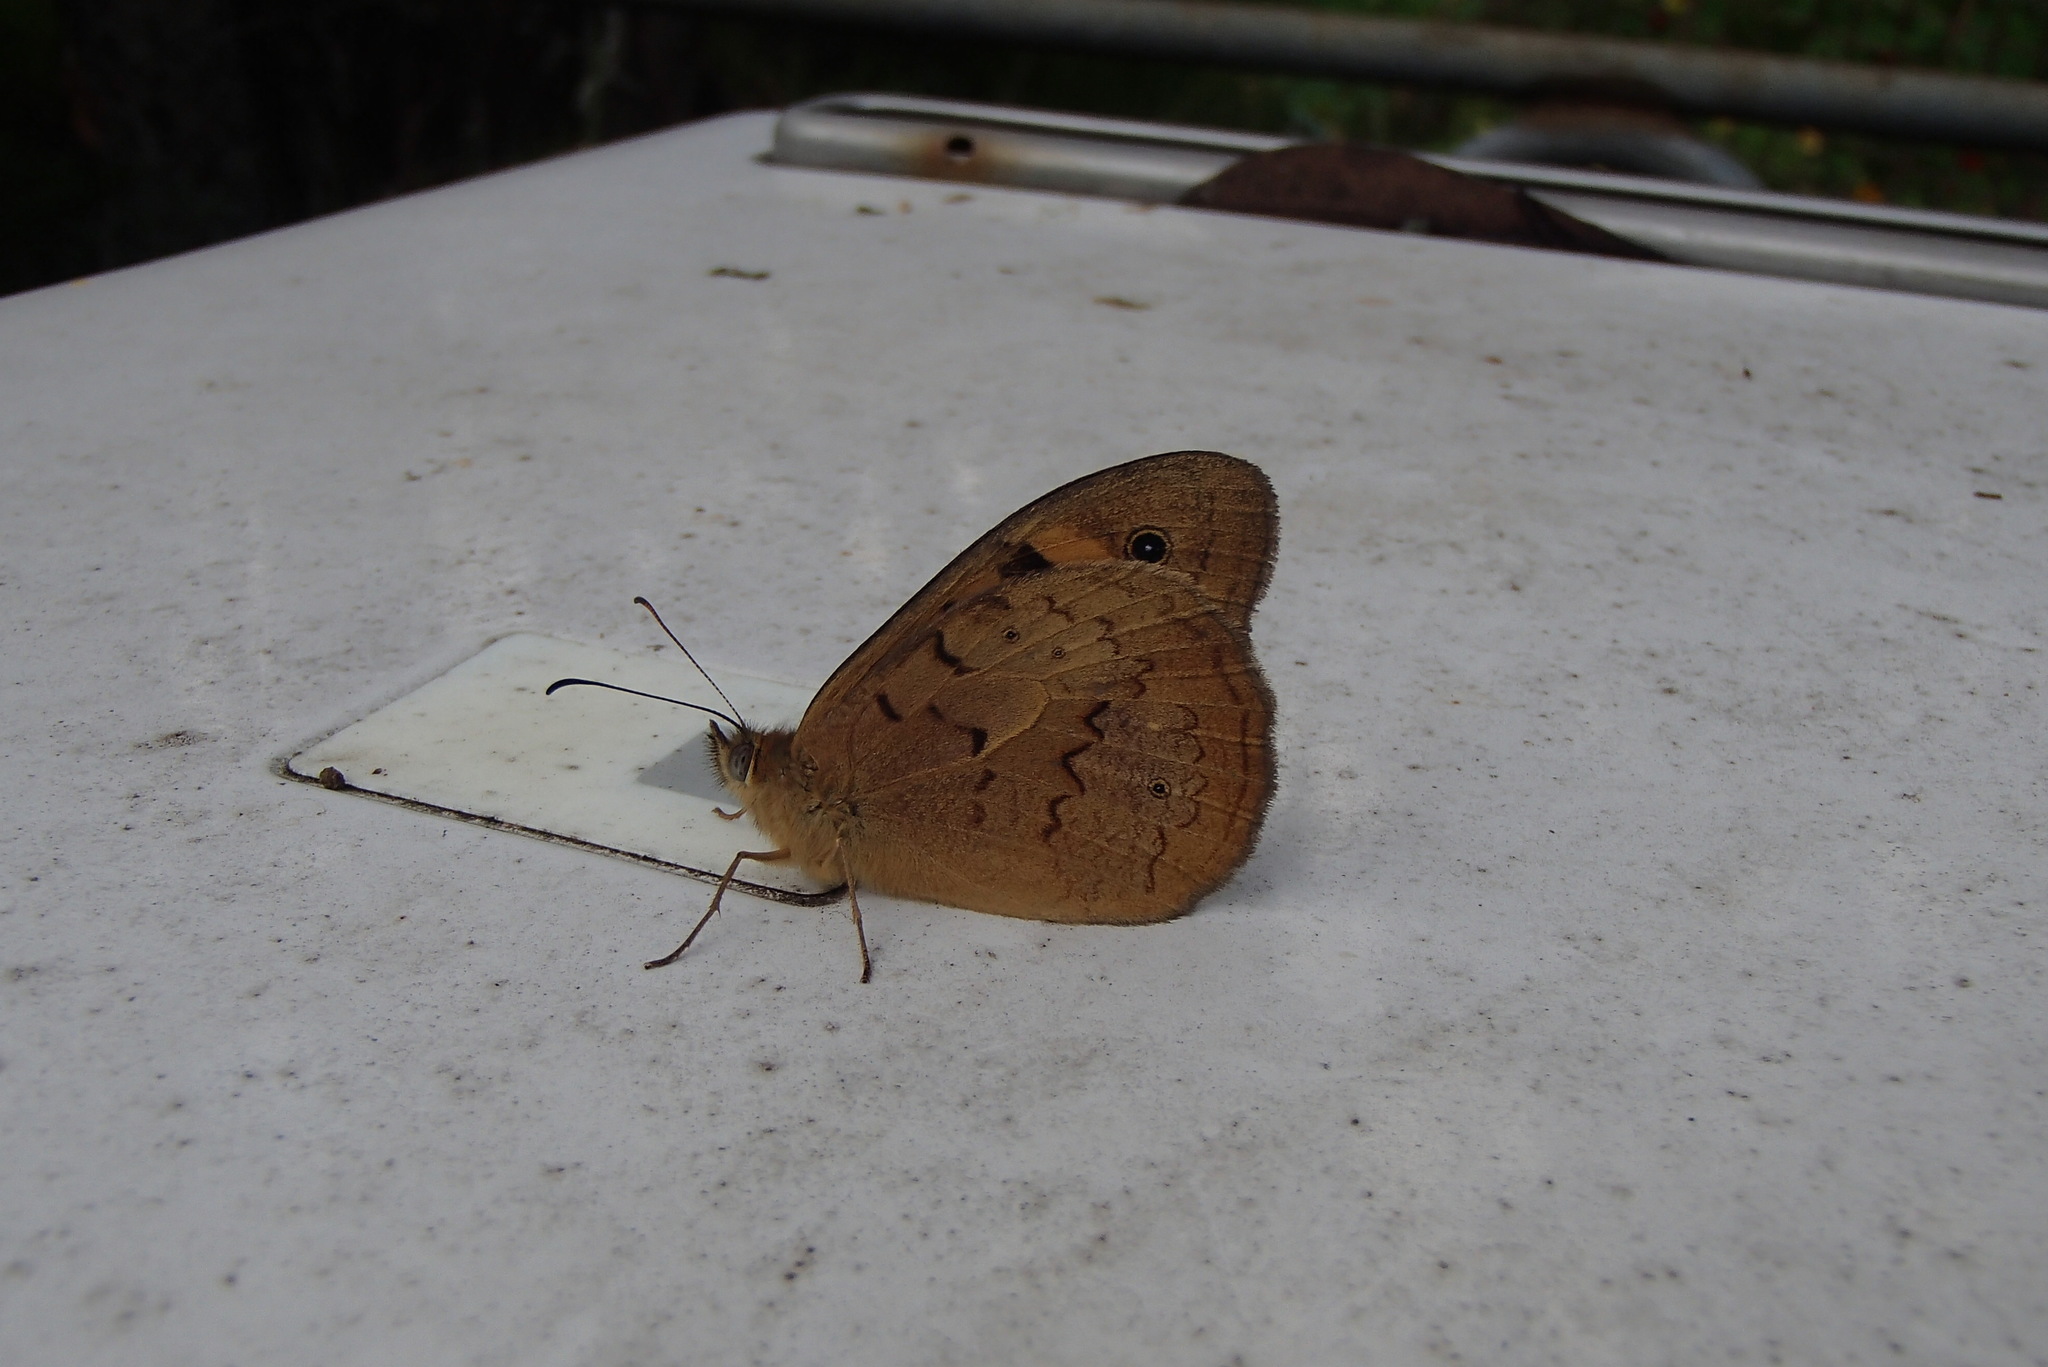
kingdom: Animalia
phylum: Arthropoda
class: Insecta
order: Lepidoptera
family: Nymphalidae
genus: Heteronympha
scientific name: Heteronympha merope
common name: Common brown
